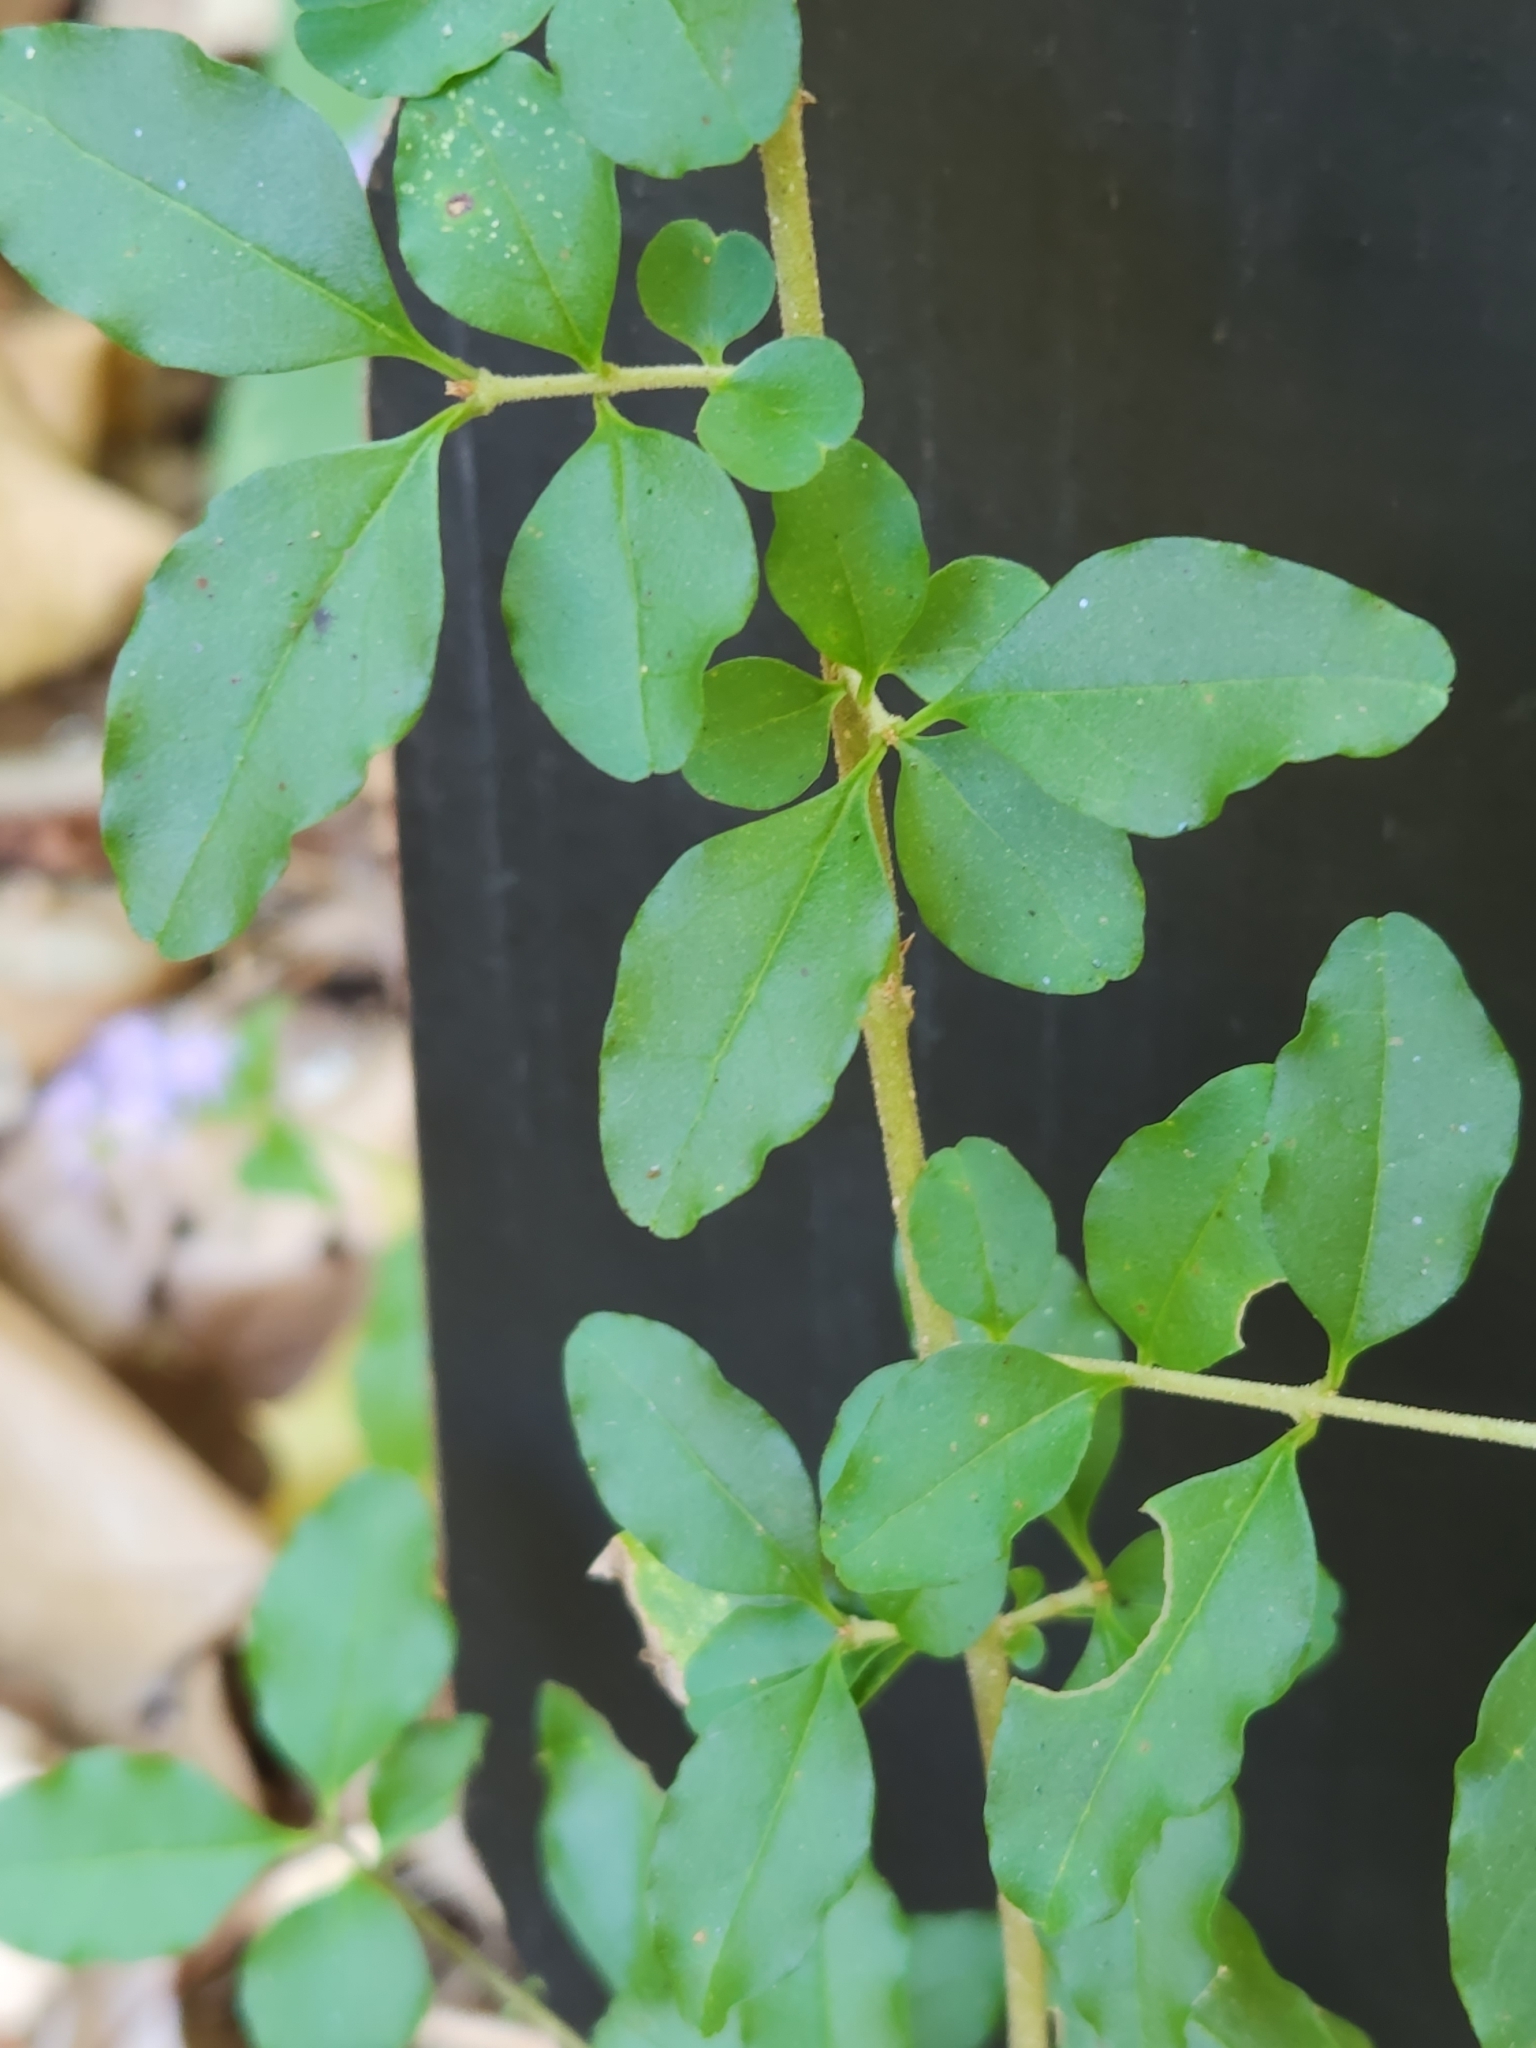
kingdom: Plantae
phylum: Tracheophyta
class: Magnoliopsida
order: Lamiales
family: Oleaceae
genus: Ligustrum
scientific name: Ligustrum sinense
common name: Chinese privet
